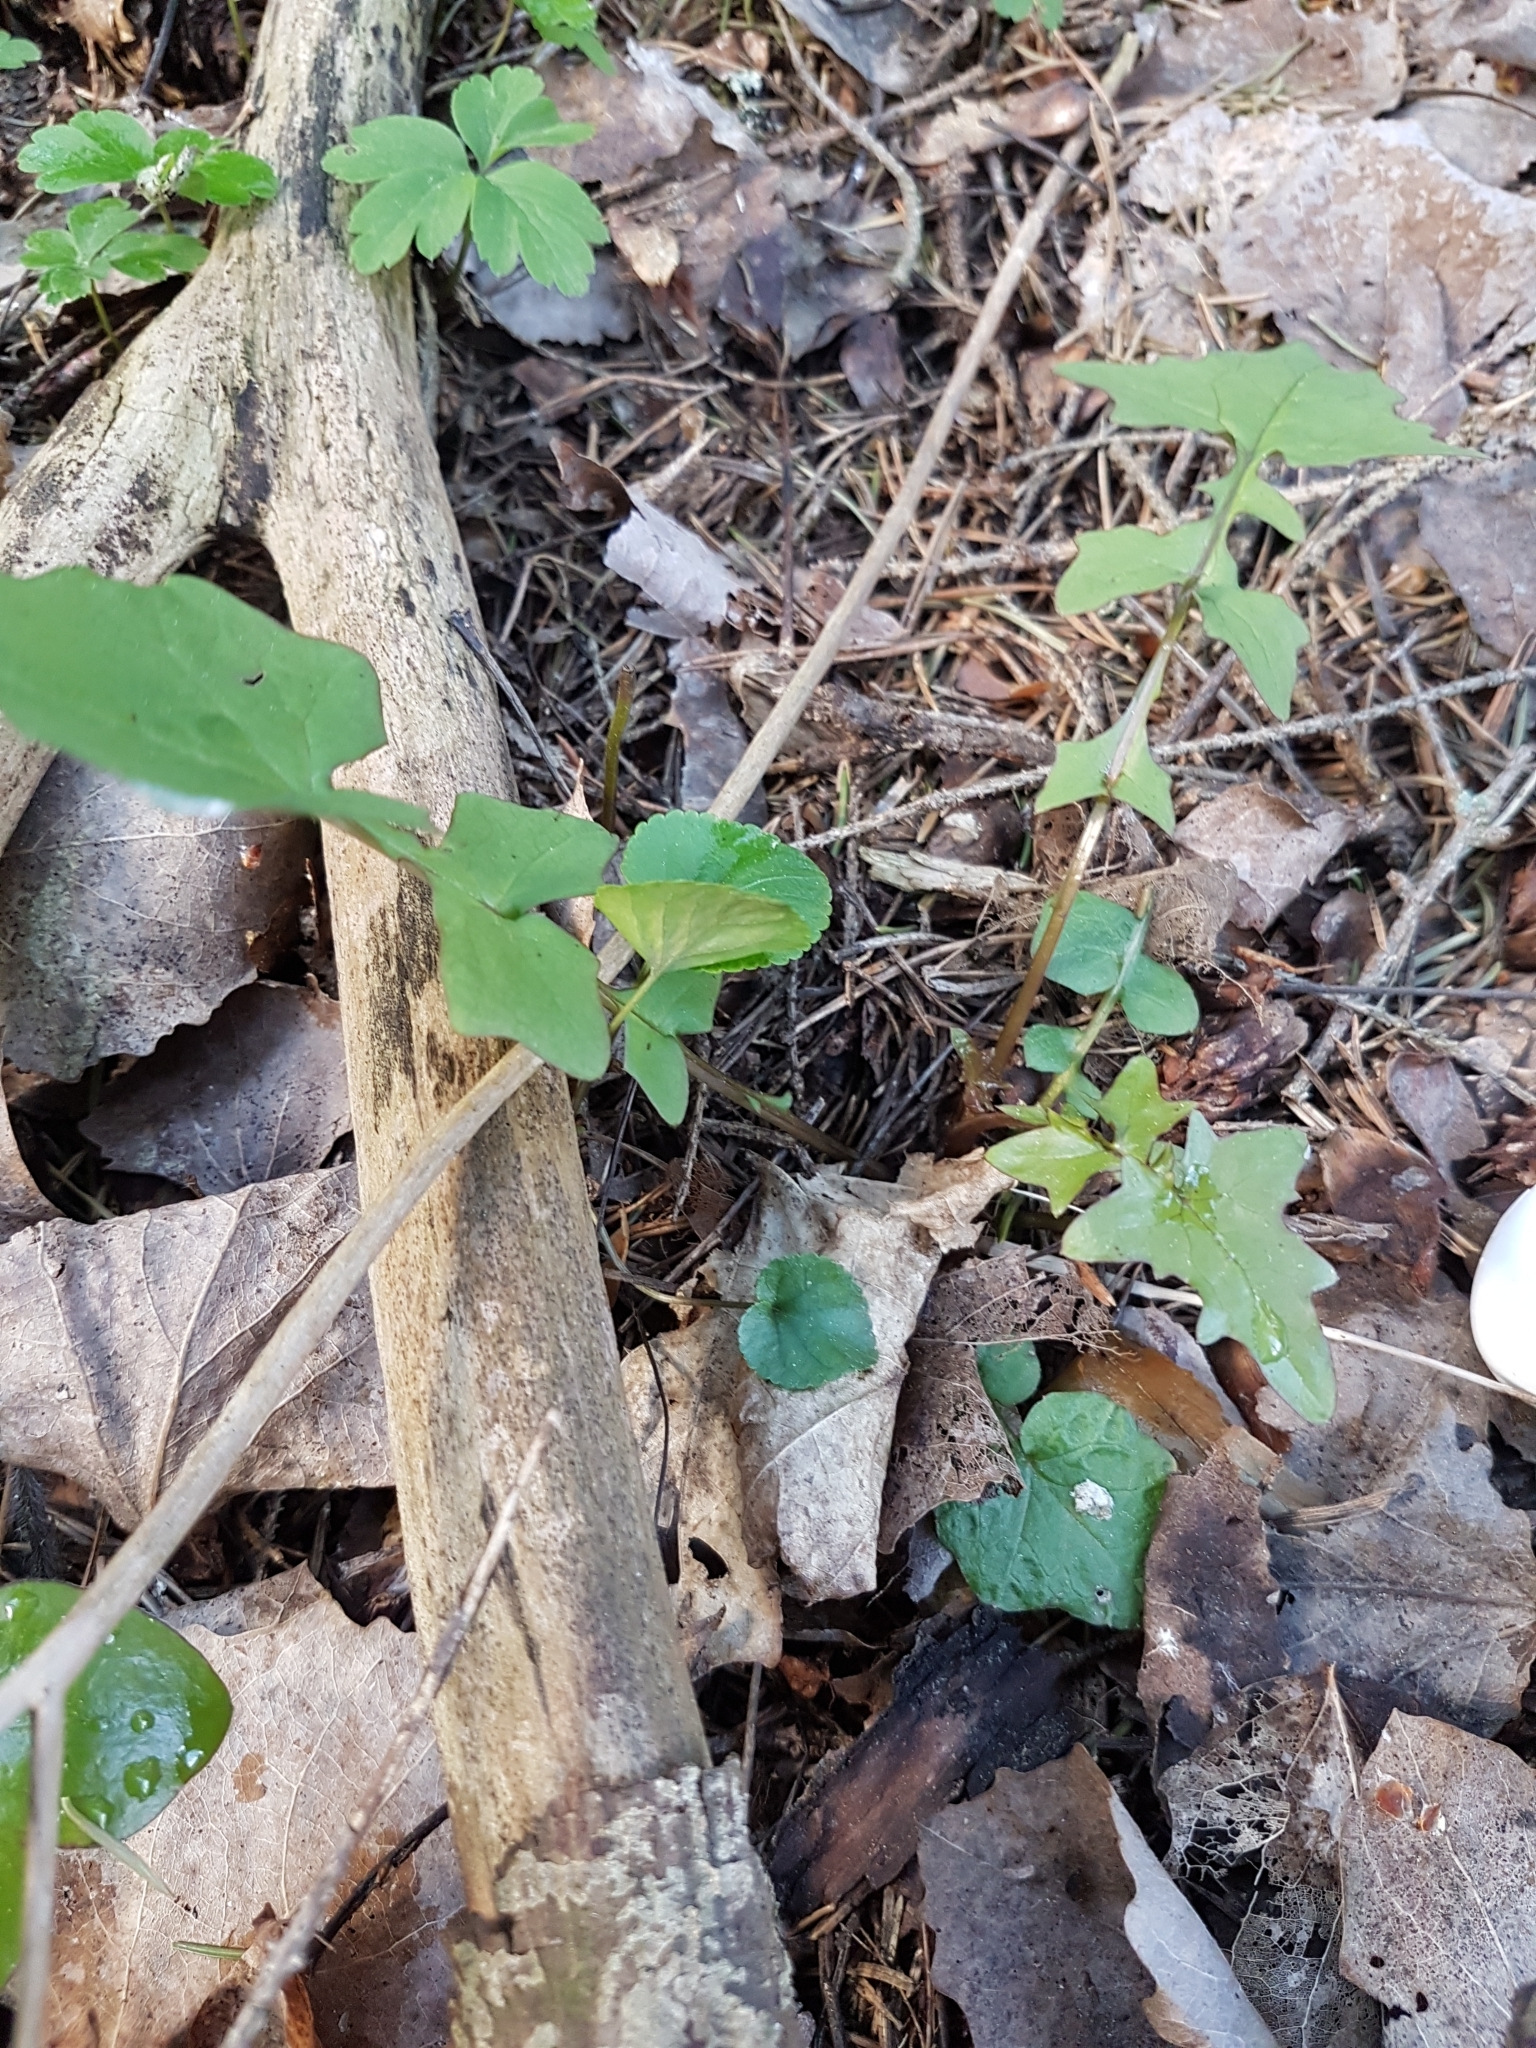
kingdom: Plantae
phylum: Tracheophyta
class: Magnoliopsida
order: Asterales
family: Asteraceae
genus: Mycelis
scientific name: Mycelis muralis
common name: Wall lettuce
